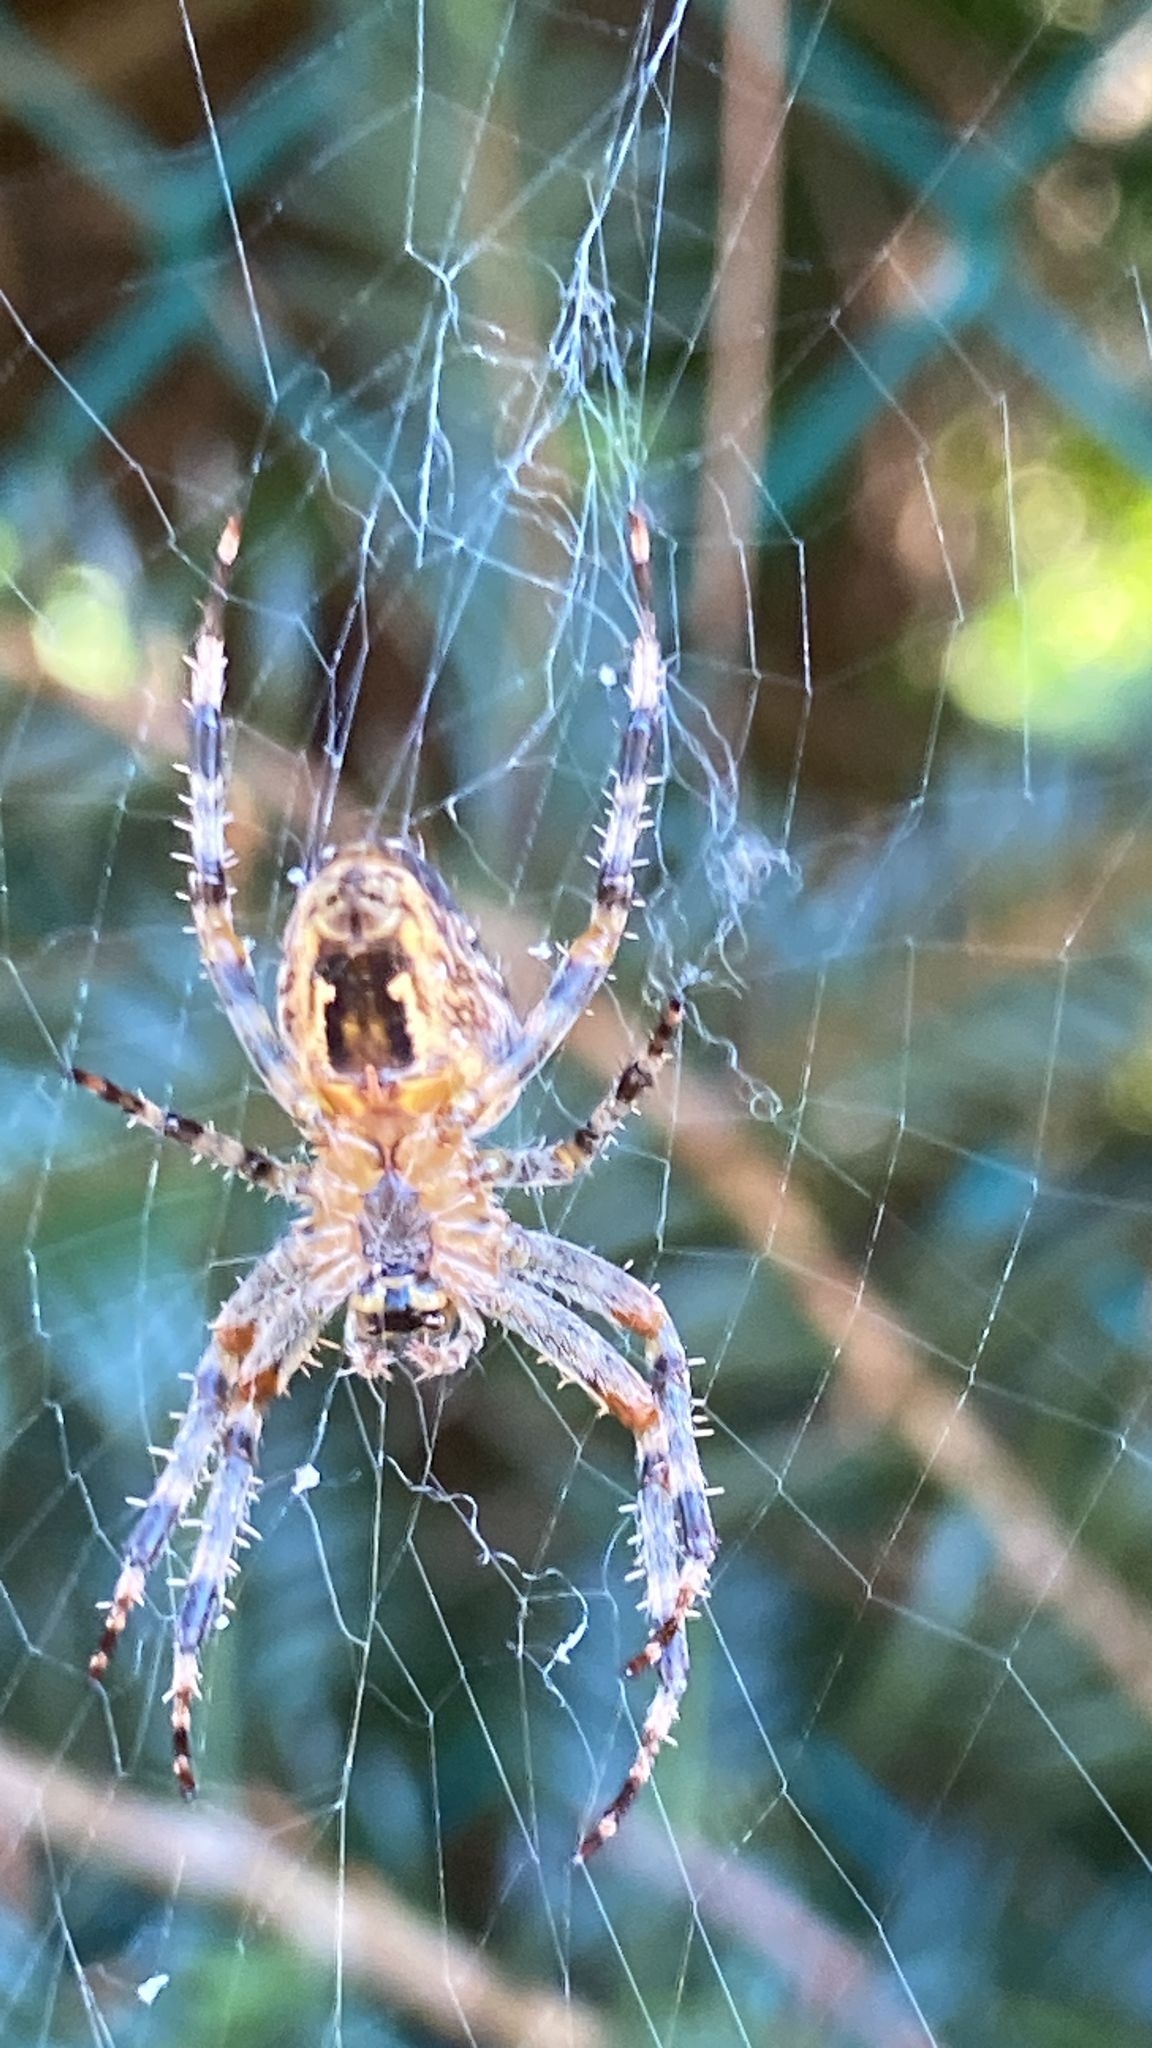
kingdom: Animalia
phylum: Arthropoda
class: Arachnida
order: Araneae
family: Araneidae
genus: Araneus
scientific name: Araneus diadematus
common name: Cross orbweaver
